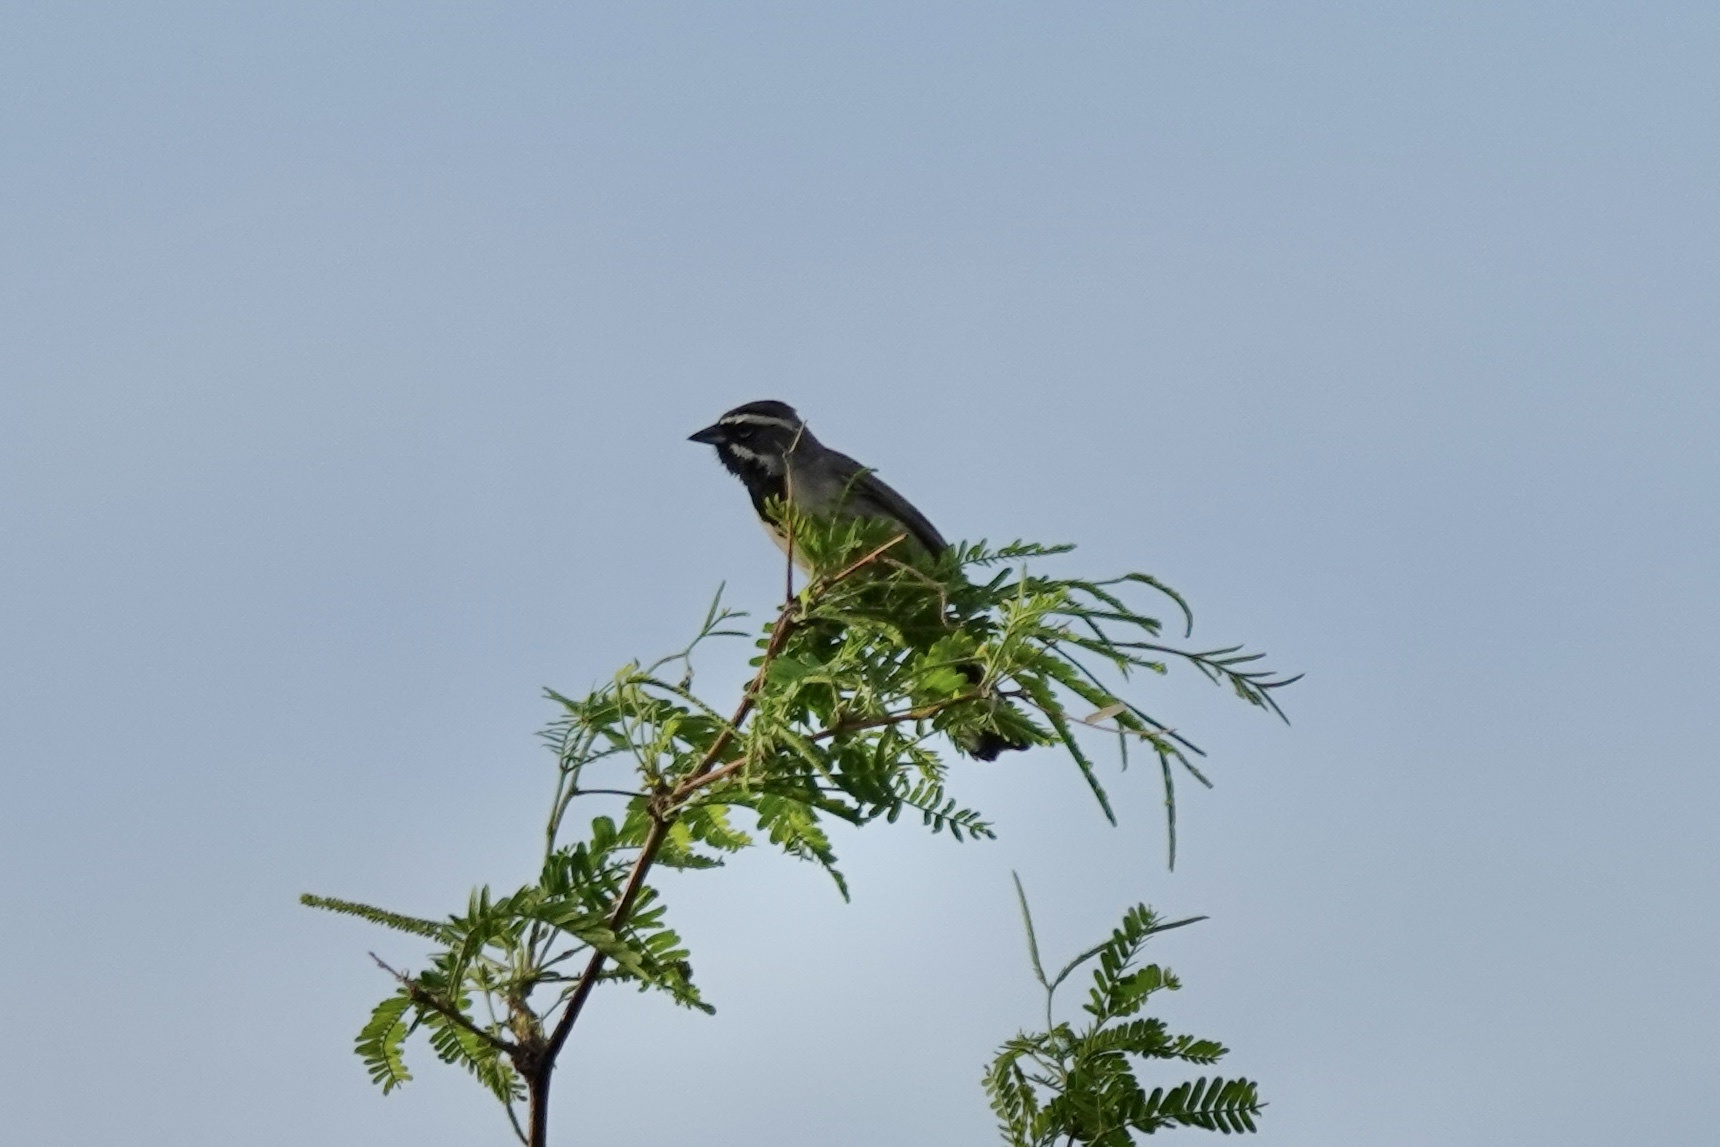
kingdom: Animalia
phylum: Chordata
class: Aves
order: Passeriformes
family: Passerellidae
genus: Amphispiza
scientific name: Amphispiza bilineata
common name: Black-throated sparrow
